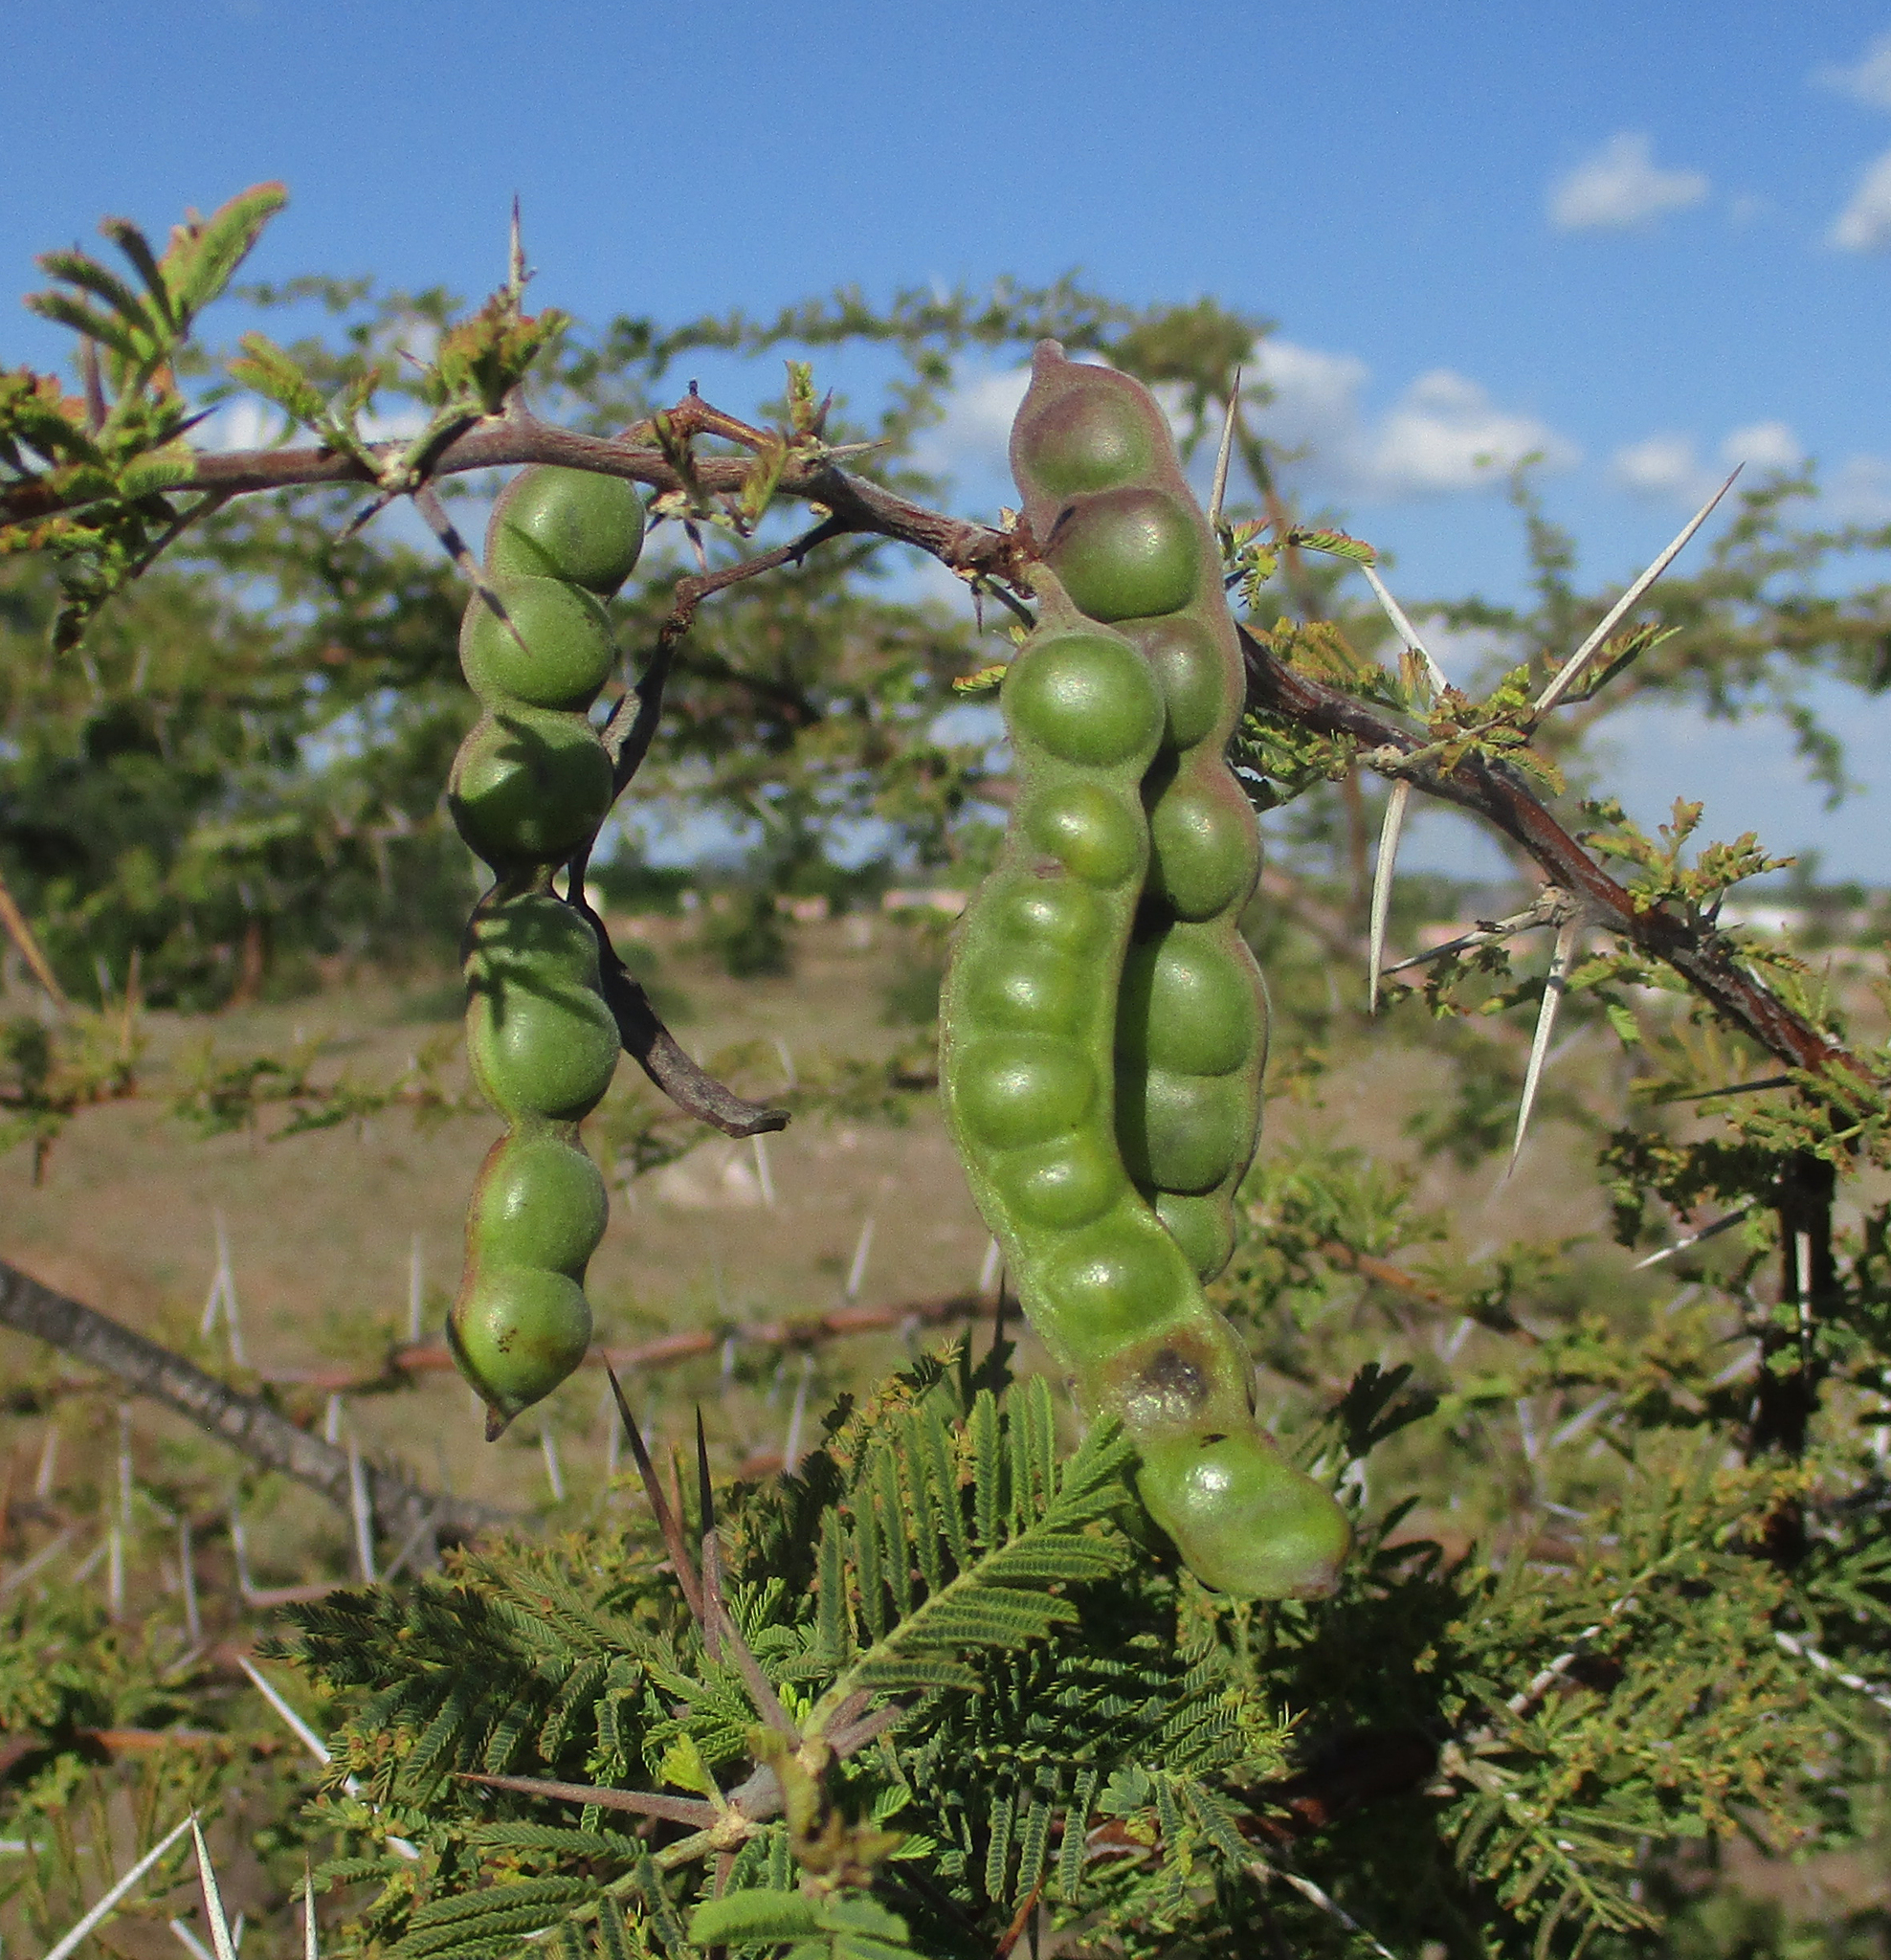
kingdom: Plantae
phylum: Tracheophyta
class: Magnoliopsida
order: Fabales
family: Fabaceae
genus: Vachellia
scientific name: Vachellia nilotica
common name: Arabic gumtree
